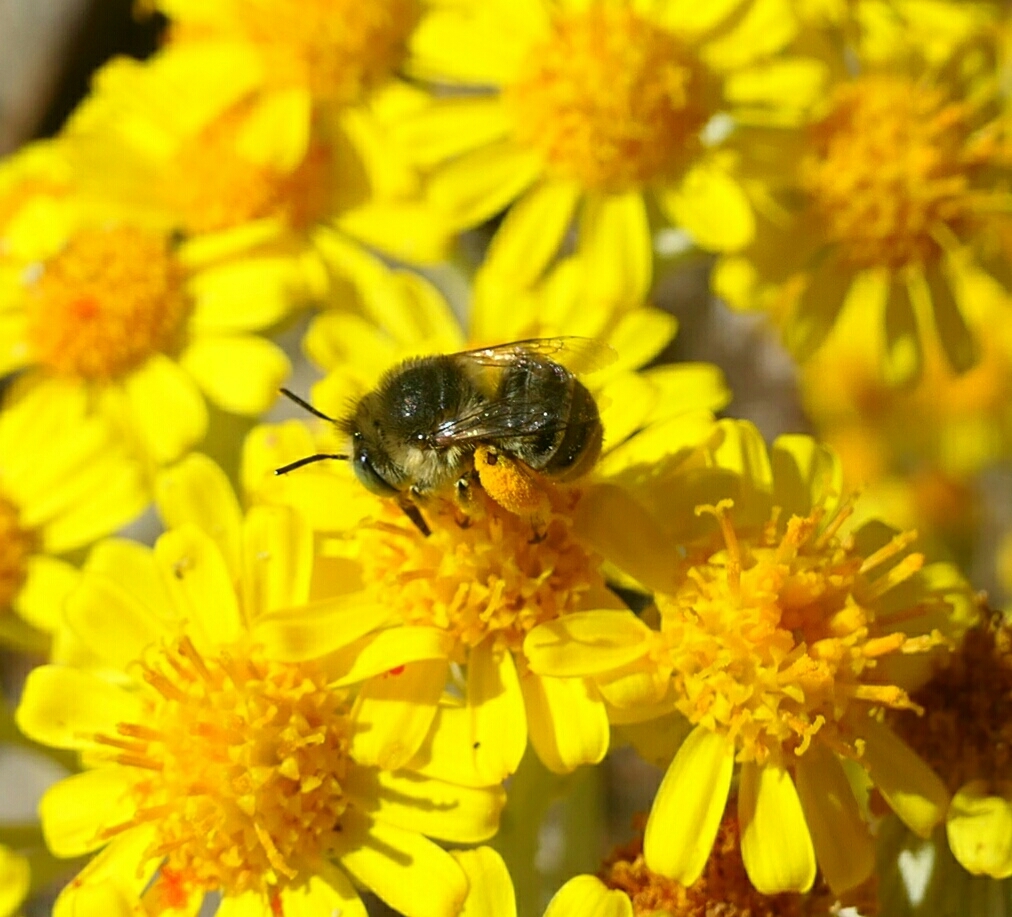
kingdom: Animalia
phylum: Arthropoda
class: Insecta
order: Hymenoptera
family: Apidae
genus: Anthophora
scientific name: Anthophora bimaculata
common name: Green-eyed flower bee
